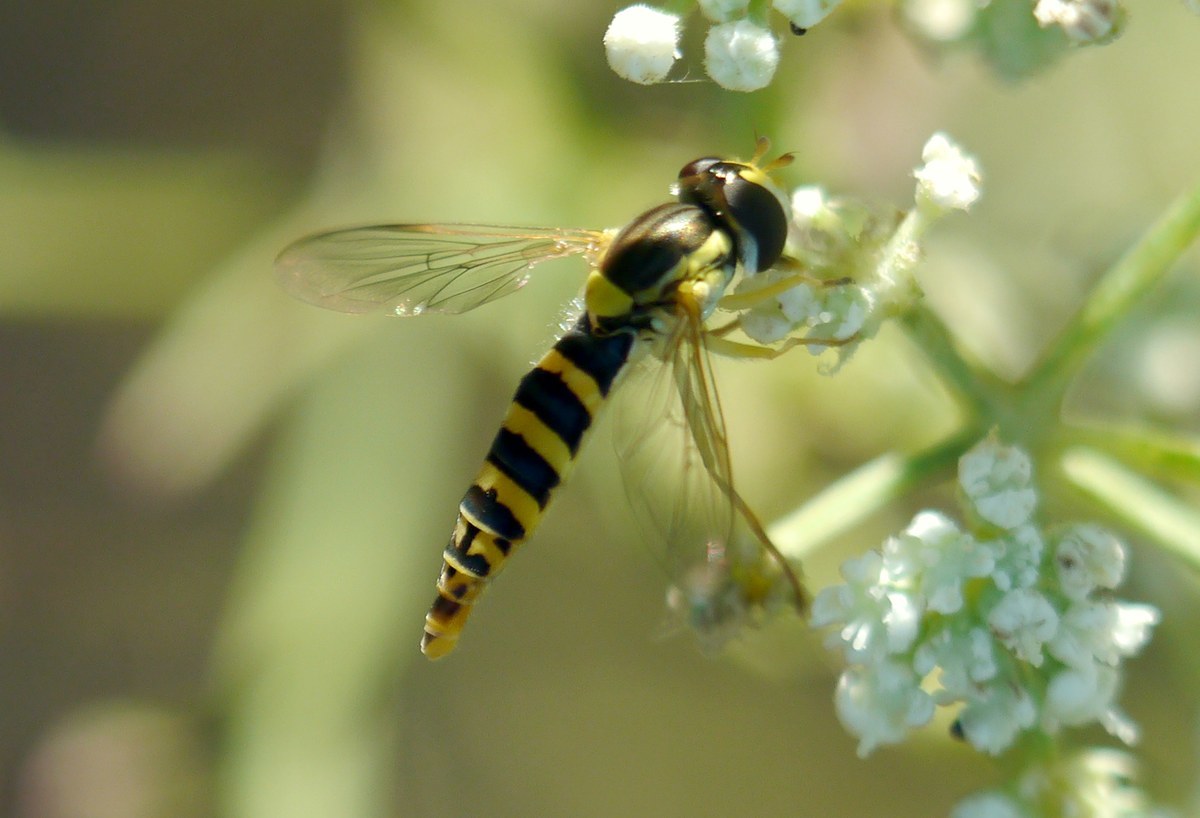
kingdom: Animalia
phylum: Arthropoda
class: Insecta
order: Diptera
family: Syrphidae
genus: Sphaerophoria
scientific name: Sphaerophoria
